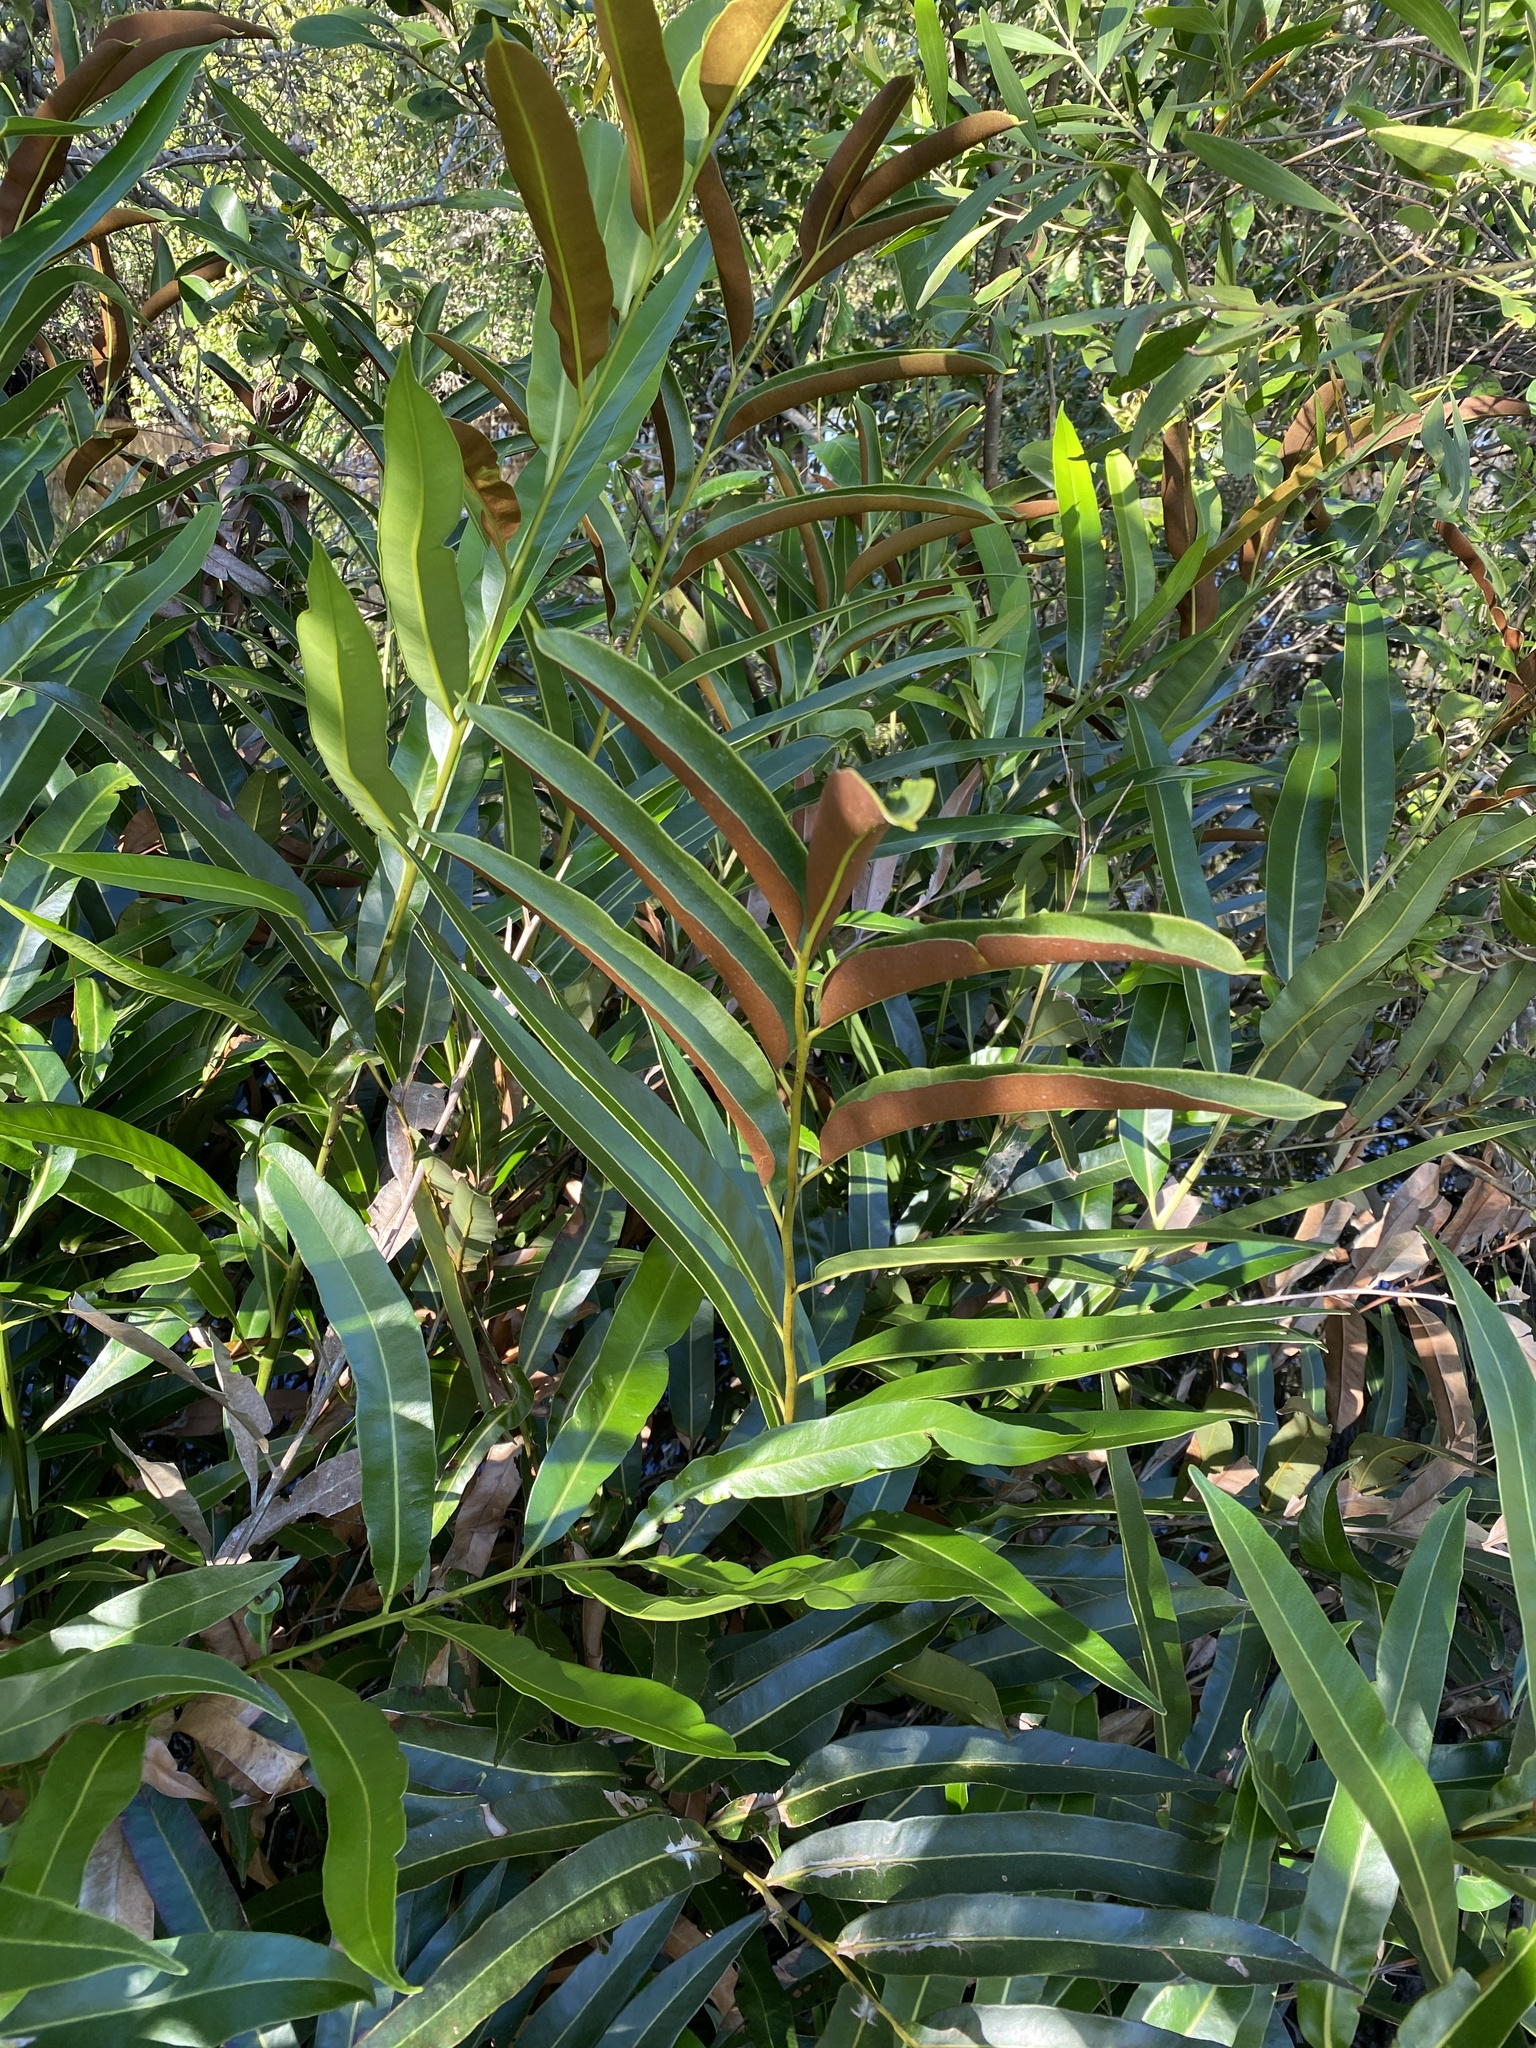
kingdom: Plantae
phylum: Tracheophyta
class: Polypodiopsida
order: Polypodiales
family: Pteridaceae
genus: Acrostichum
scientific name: Acrostichum speciosum
